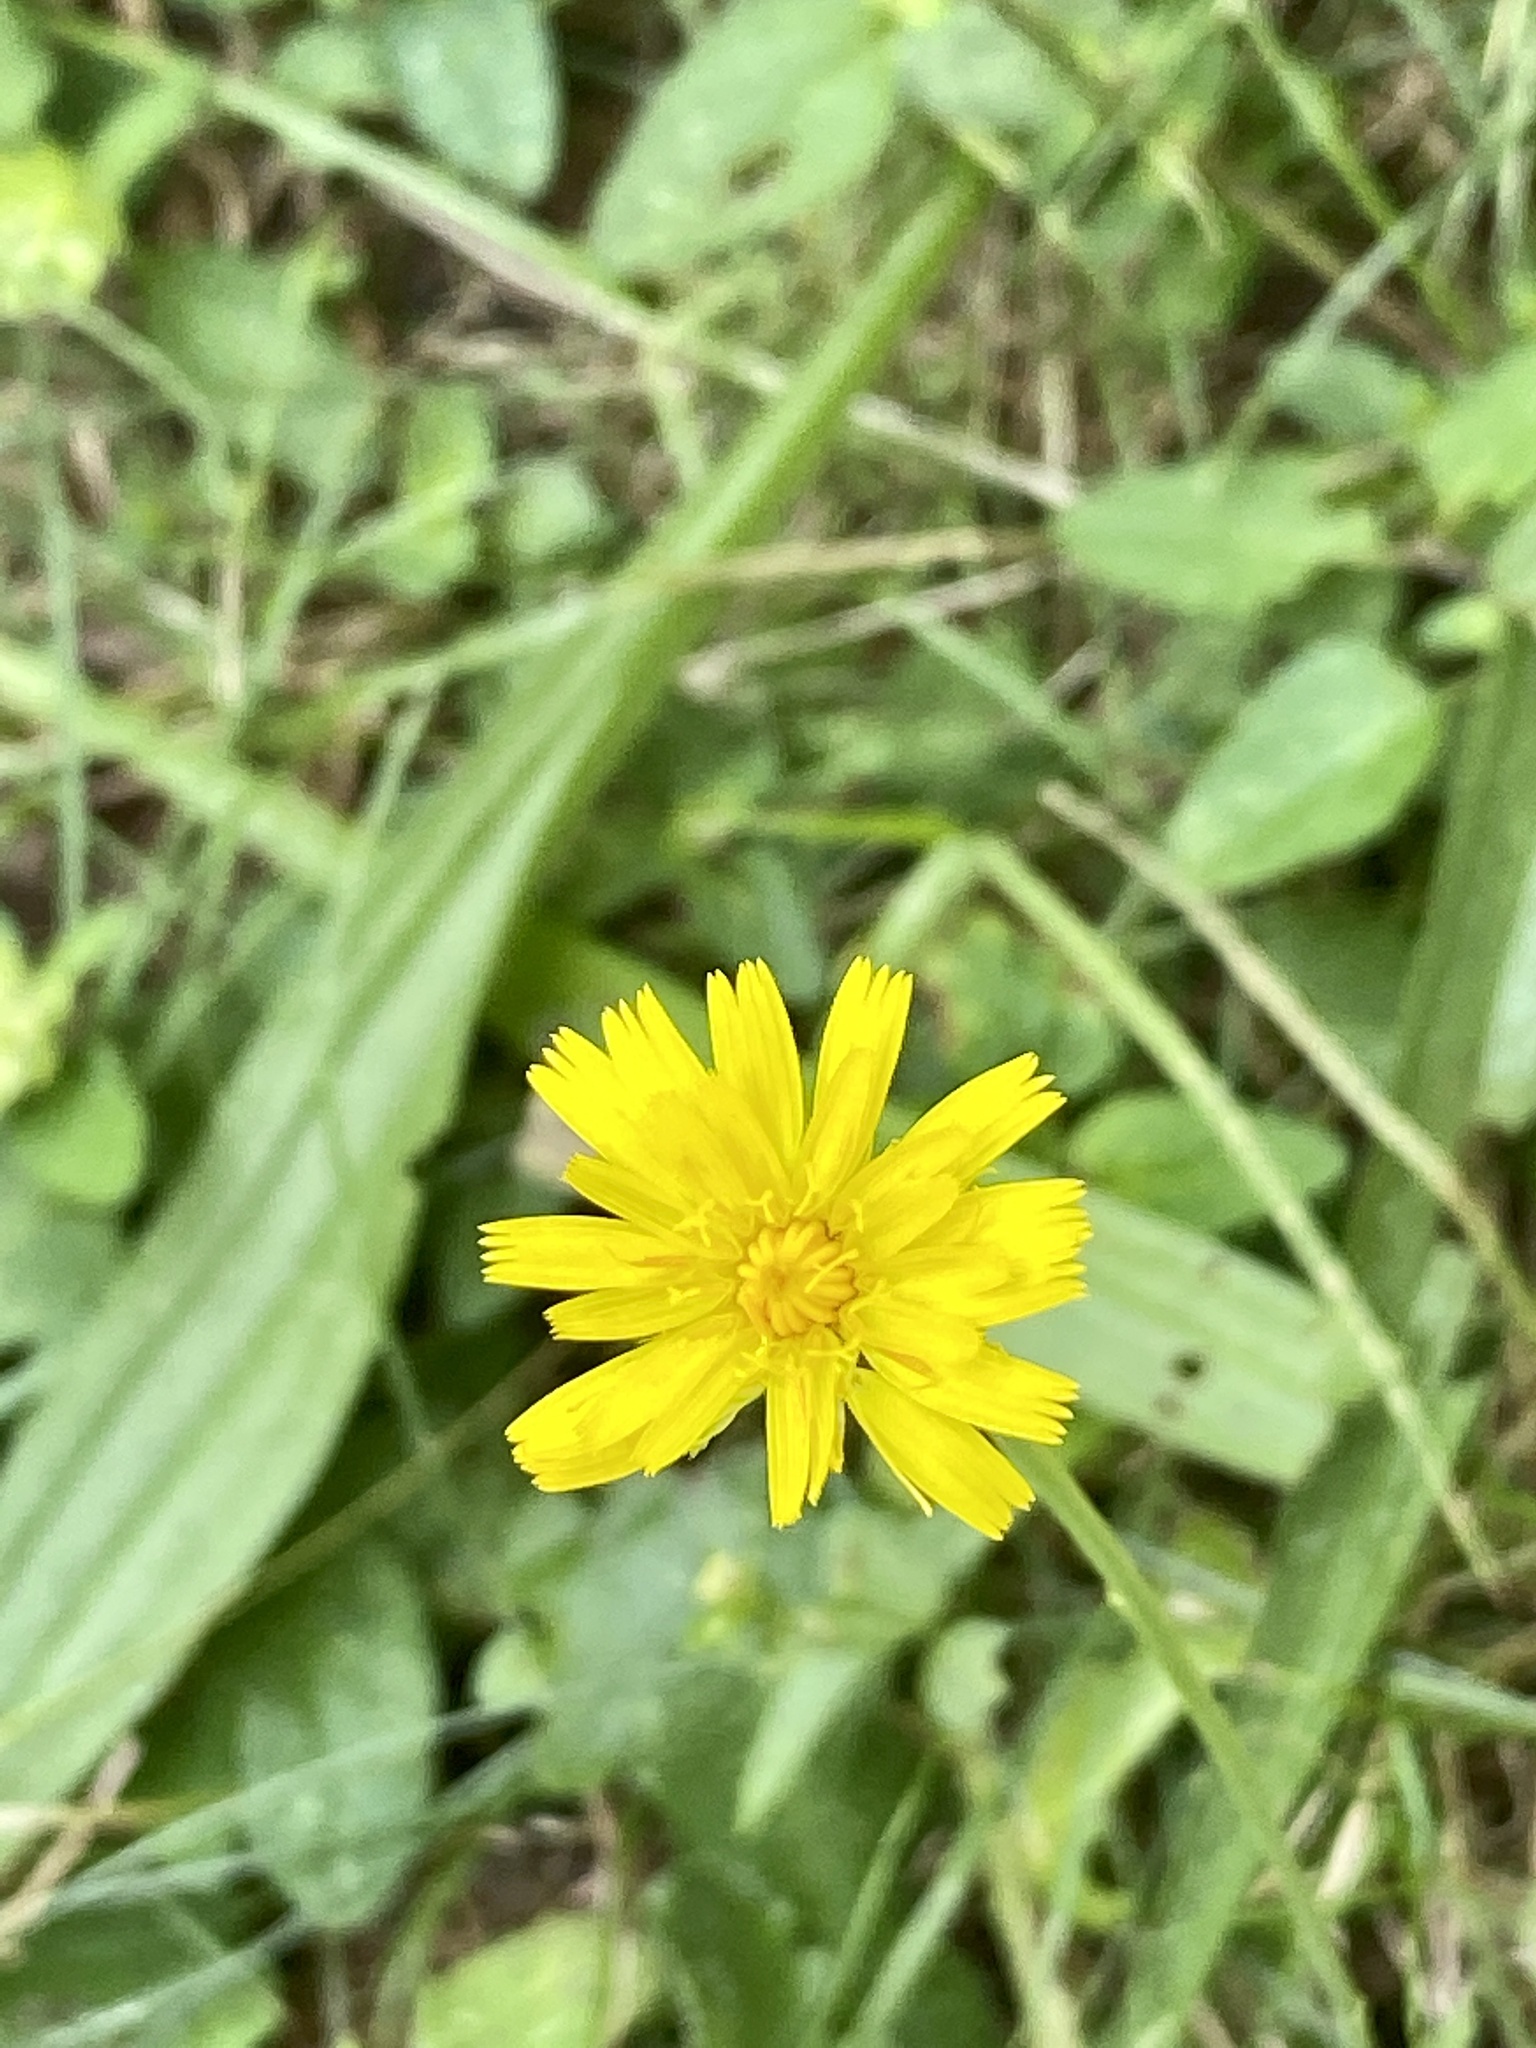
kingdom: Plantae
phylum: Tracheophyta
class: Magnoliopsida
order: Asterales
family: Asteraceae
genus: Hypochaeris
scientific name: Hypochaeris radicata
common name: Flatweed
